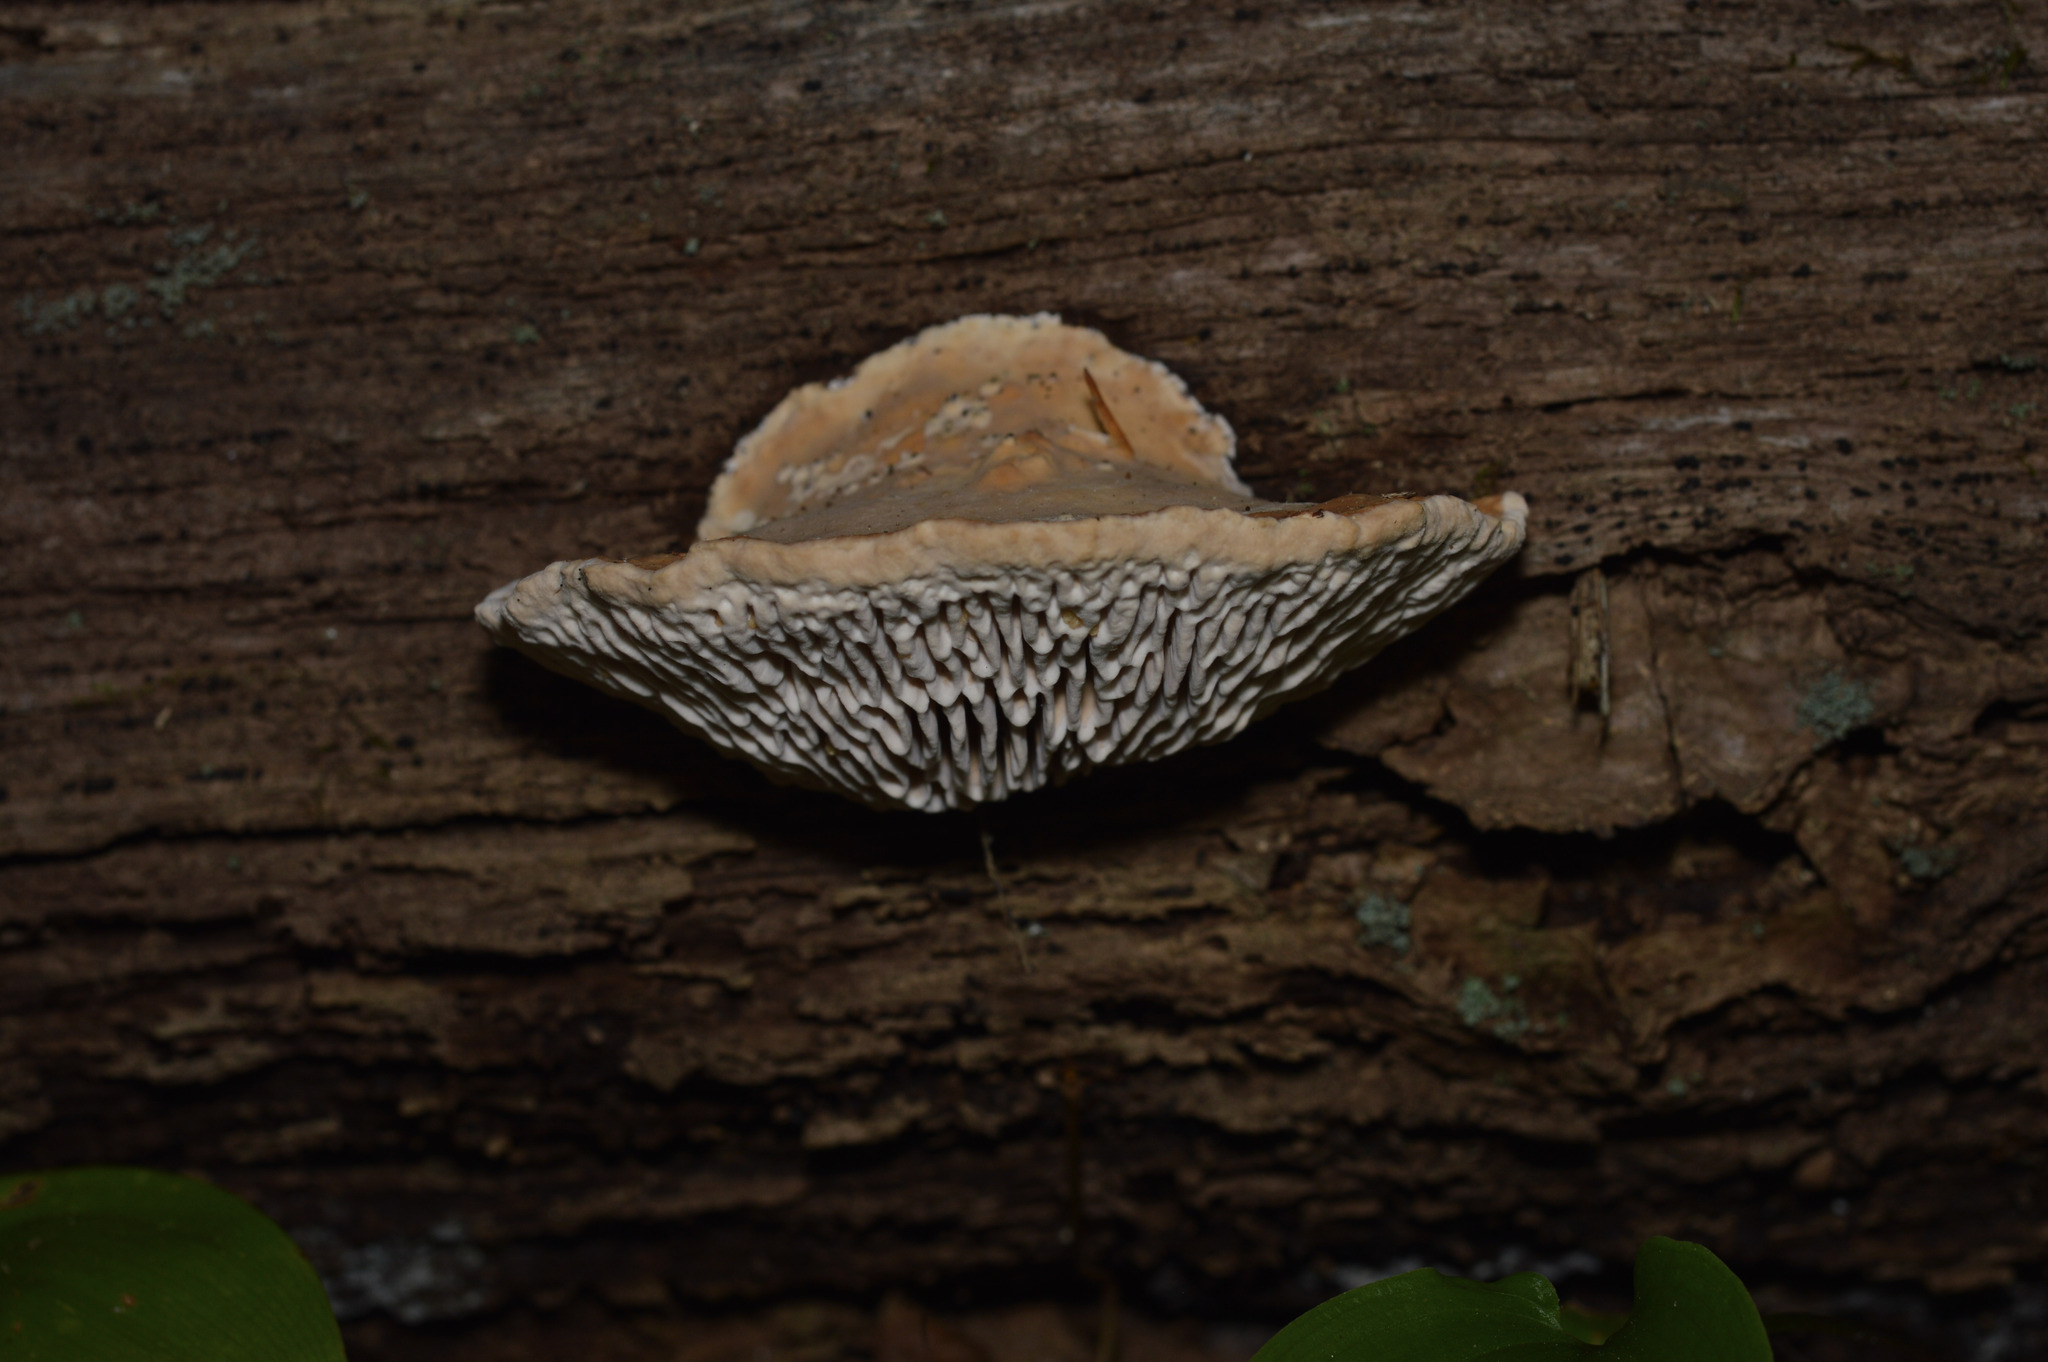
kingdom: Fungi
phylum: Basidiomycota
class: Agaricomycetes
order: Polyporales
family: Fomitopsidaceae
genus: Fomitopsis
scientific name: Fomitopsis
